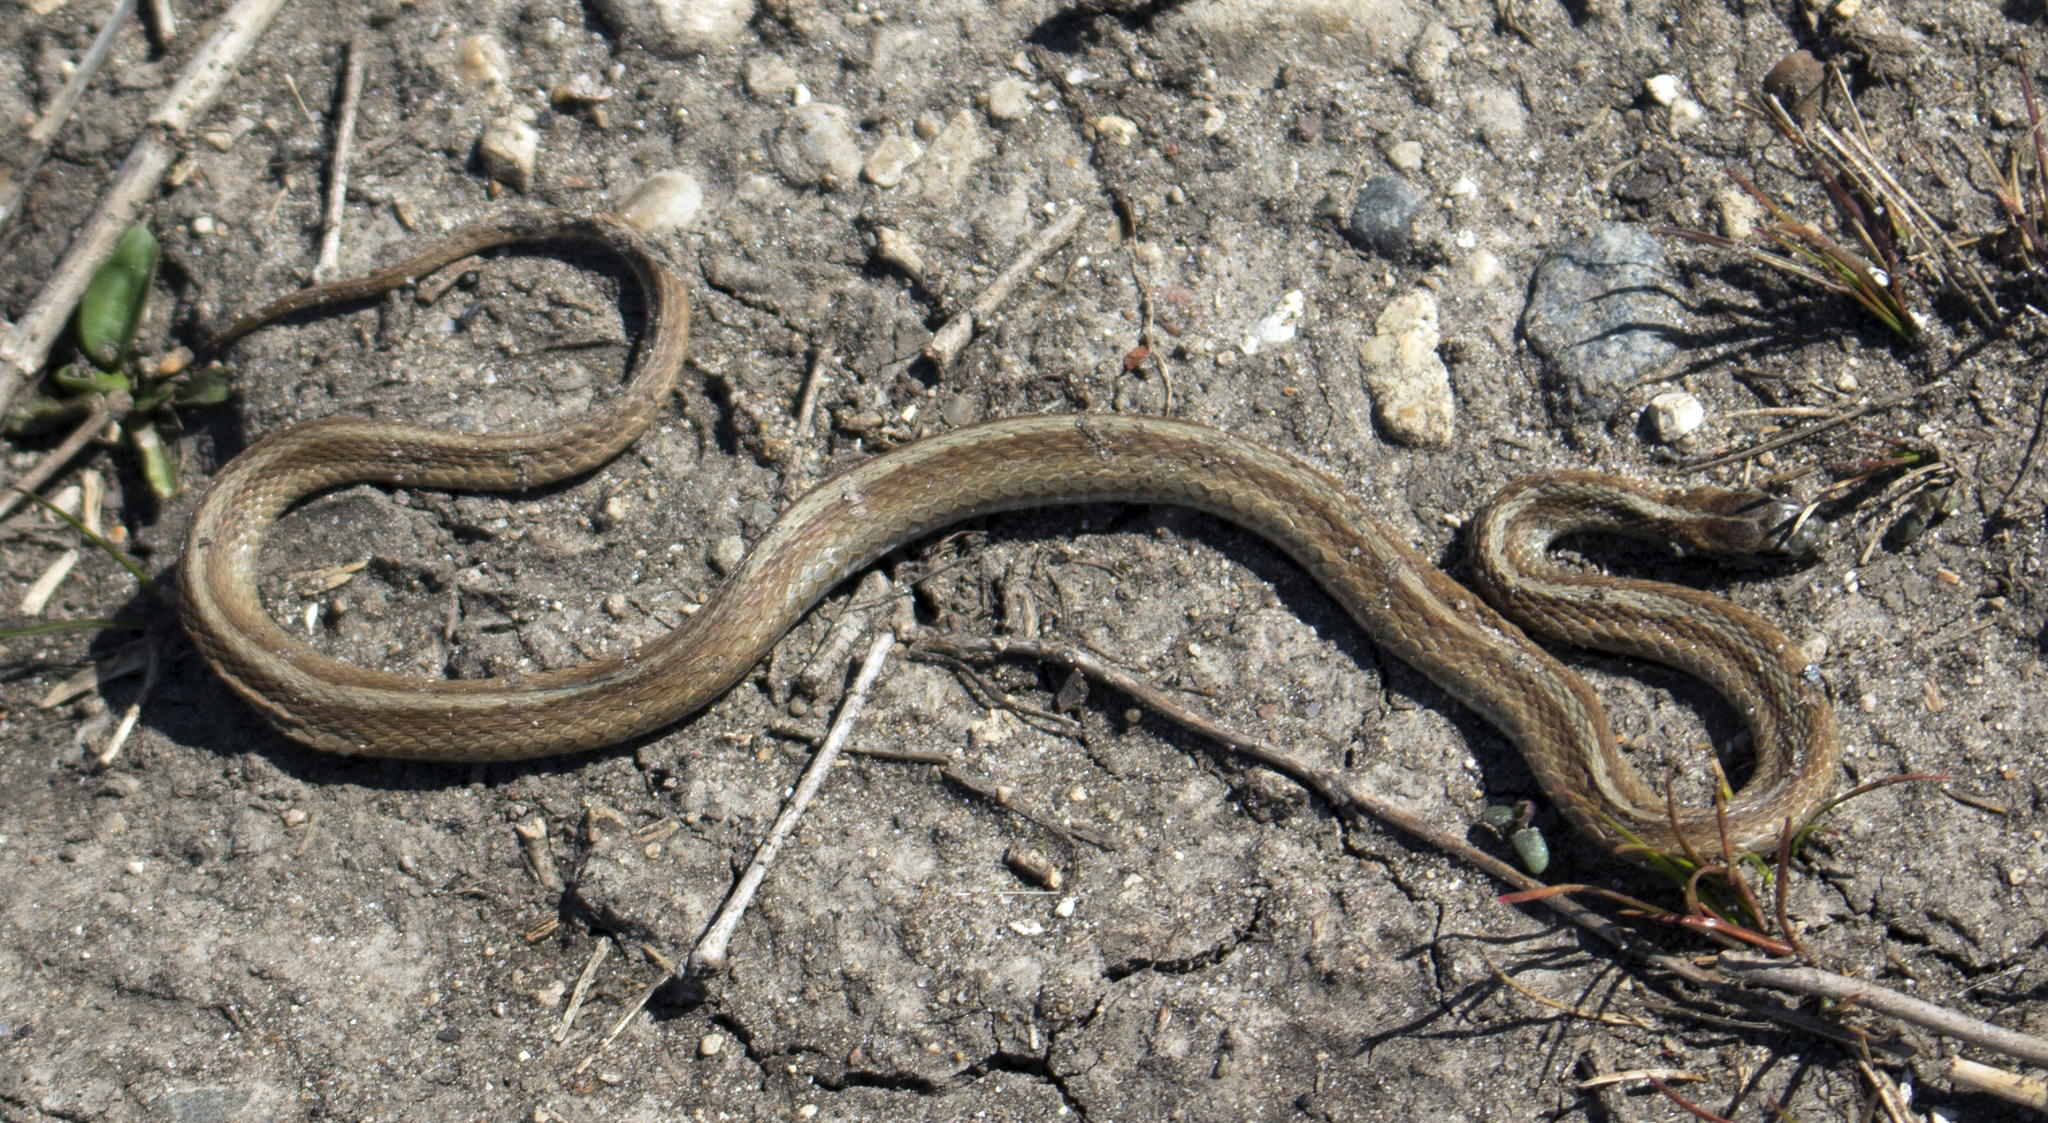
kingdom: Animalia
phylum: Chordata
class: Squamata
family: Colubridae
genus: Storeria
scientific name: Storeria dekayi
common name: (dekay’s) brown snake
